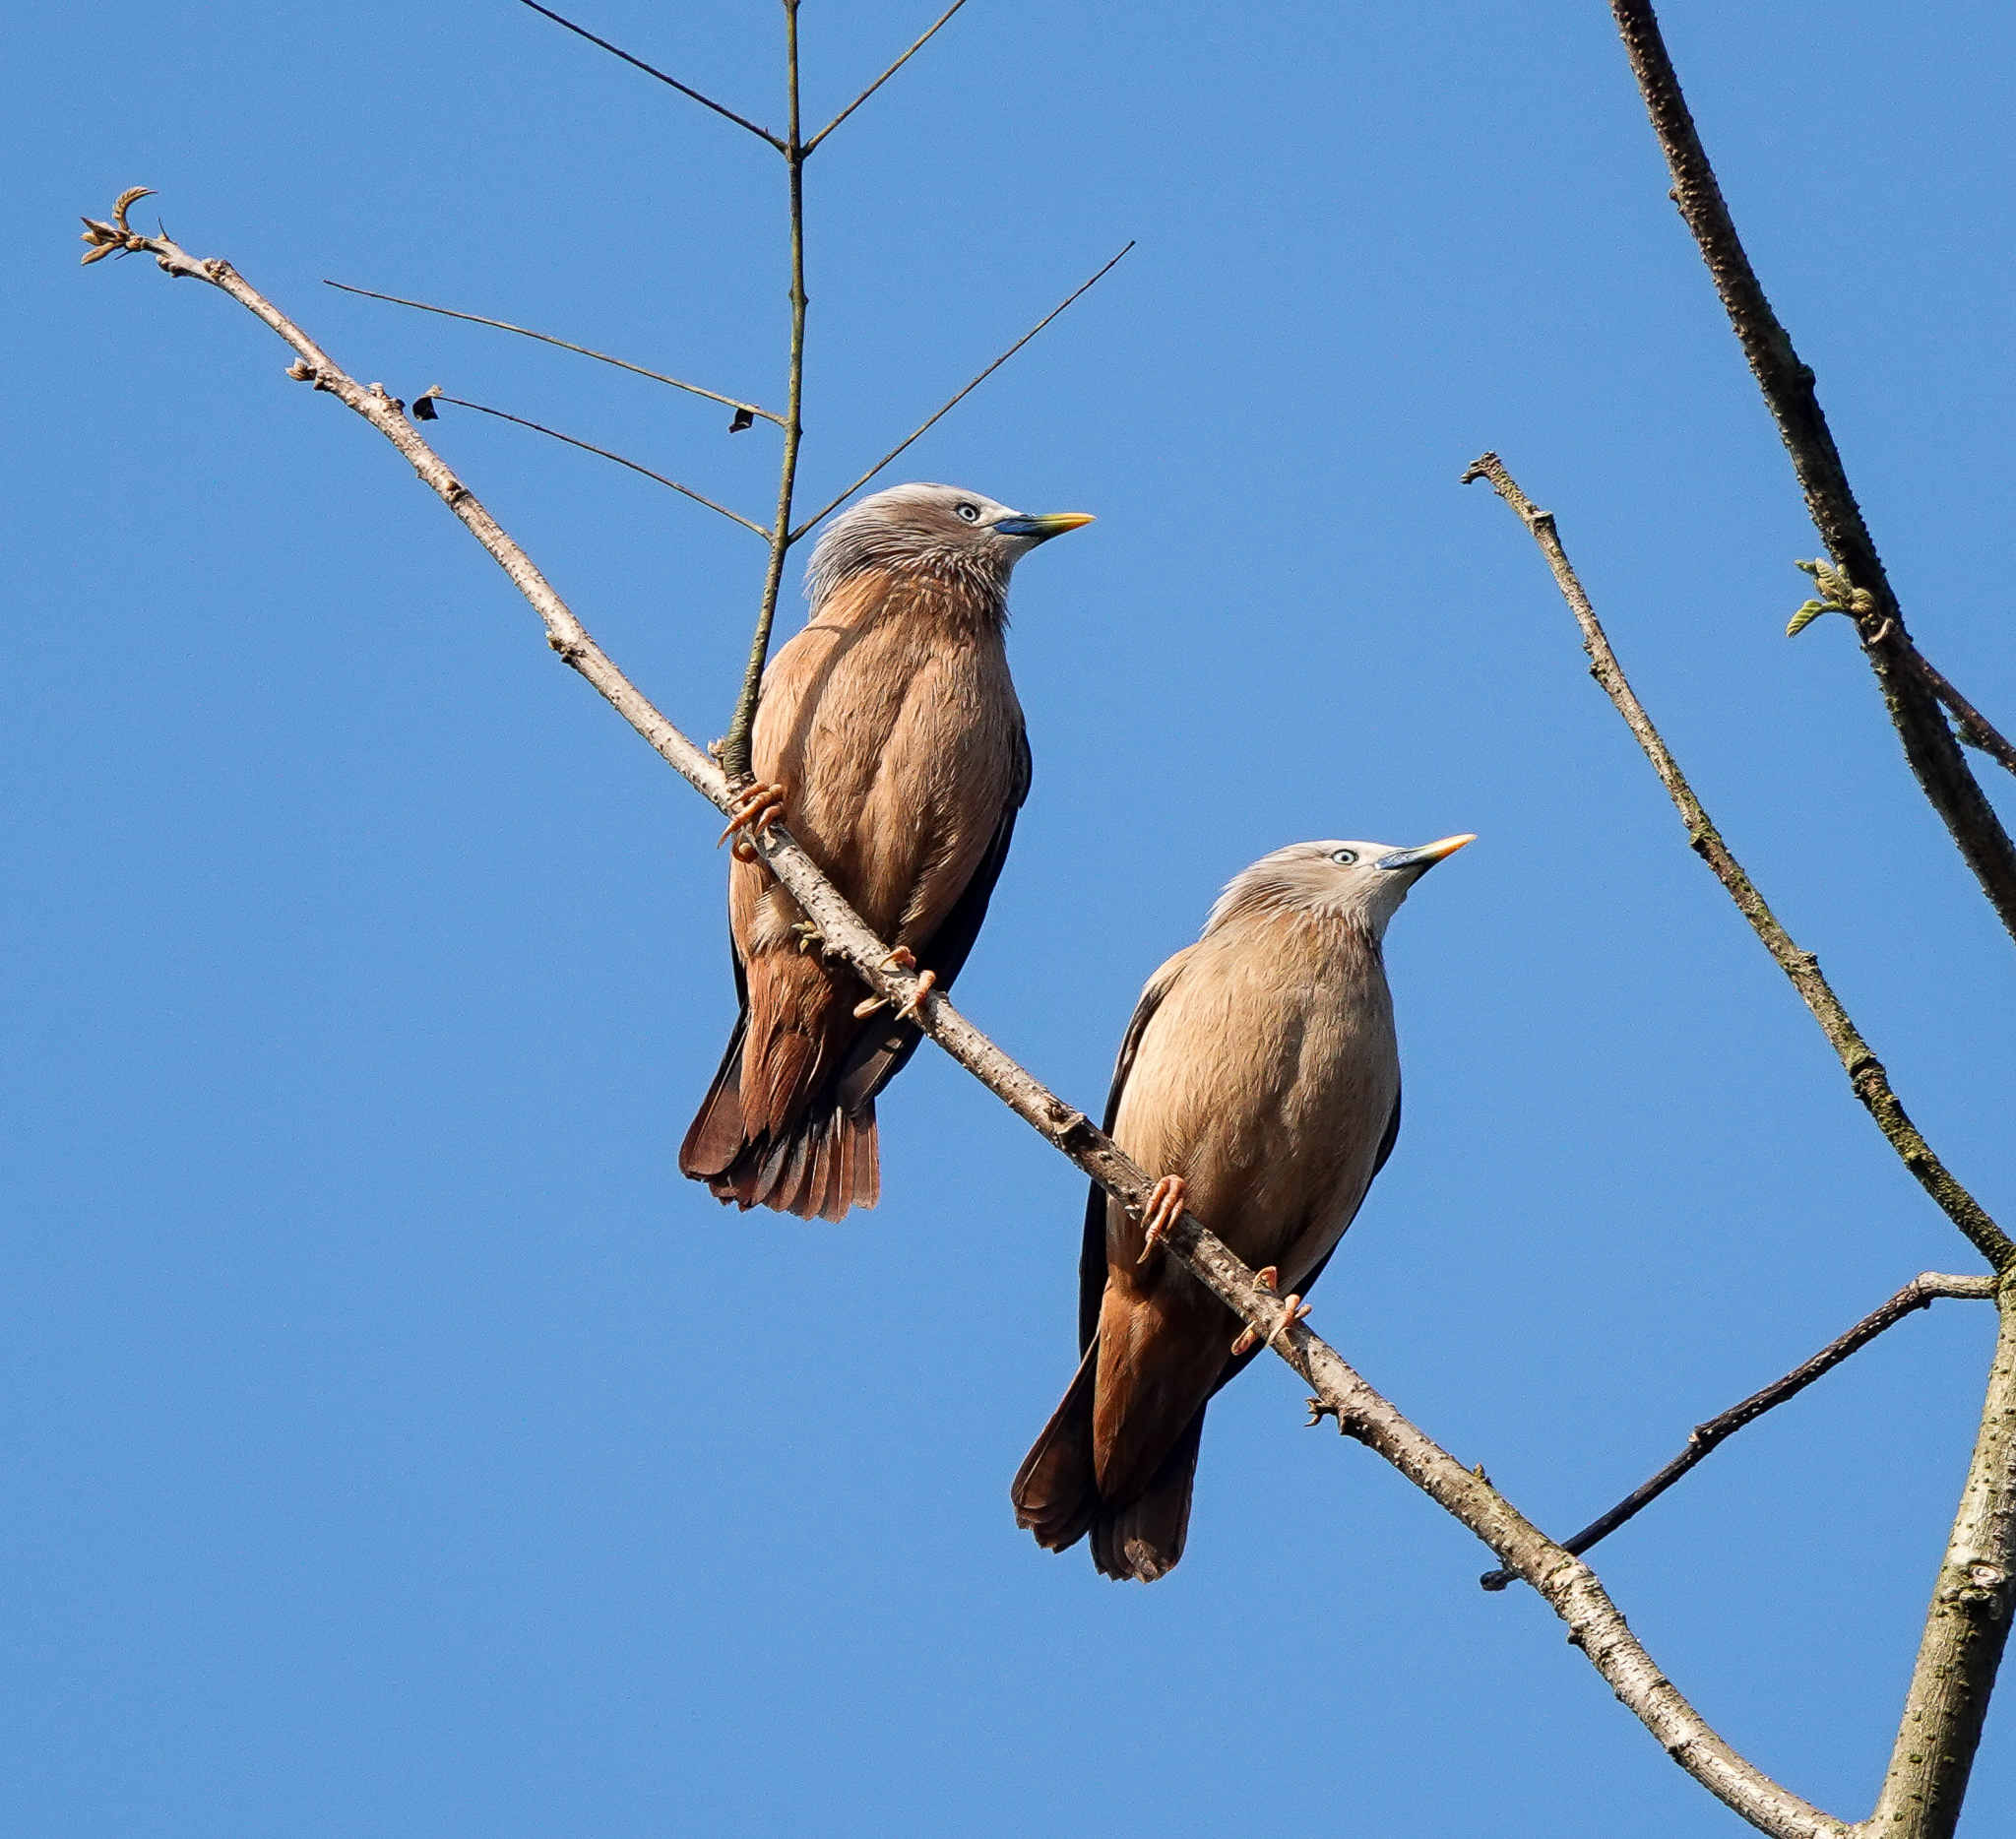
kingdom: Animalia
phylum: Chordata
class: Aves
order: Passeriformes
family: Sturnidae
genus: Sturnia
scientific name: Sturnia malabarica
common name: Chestnut-tailed starling
